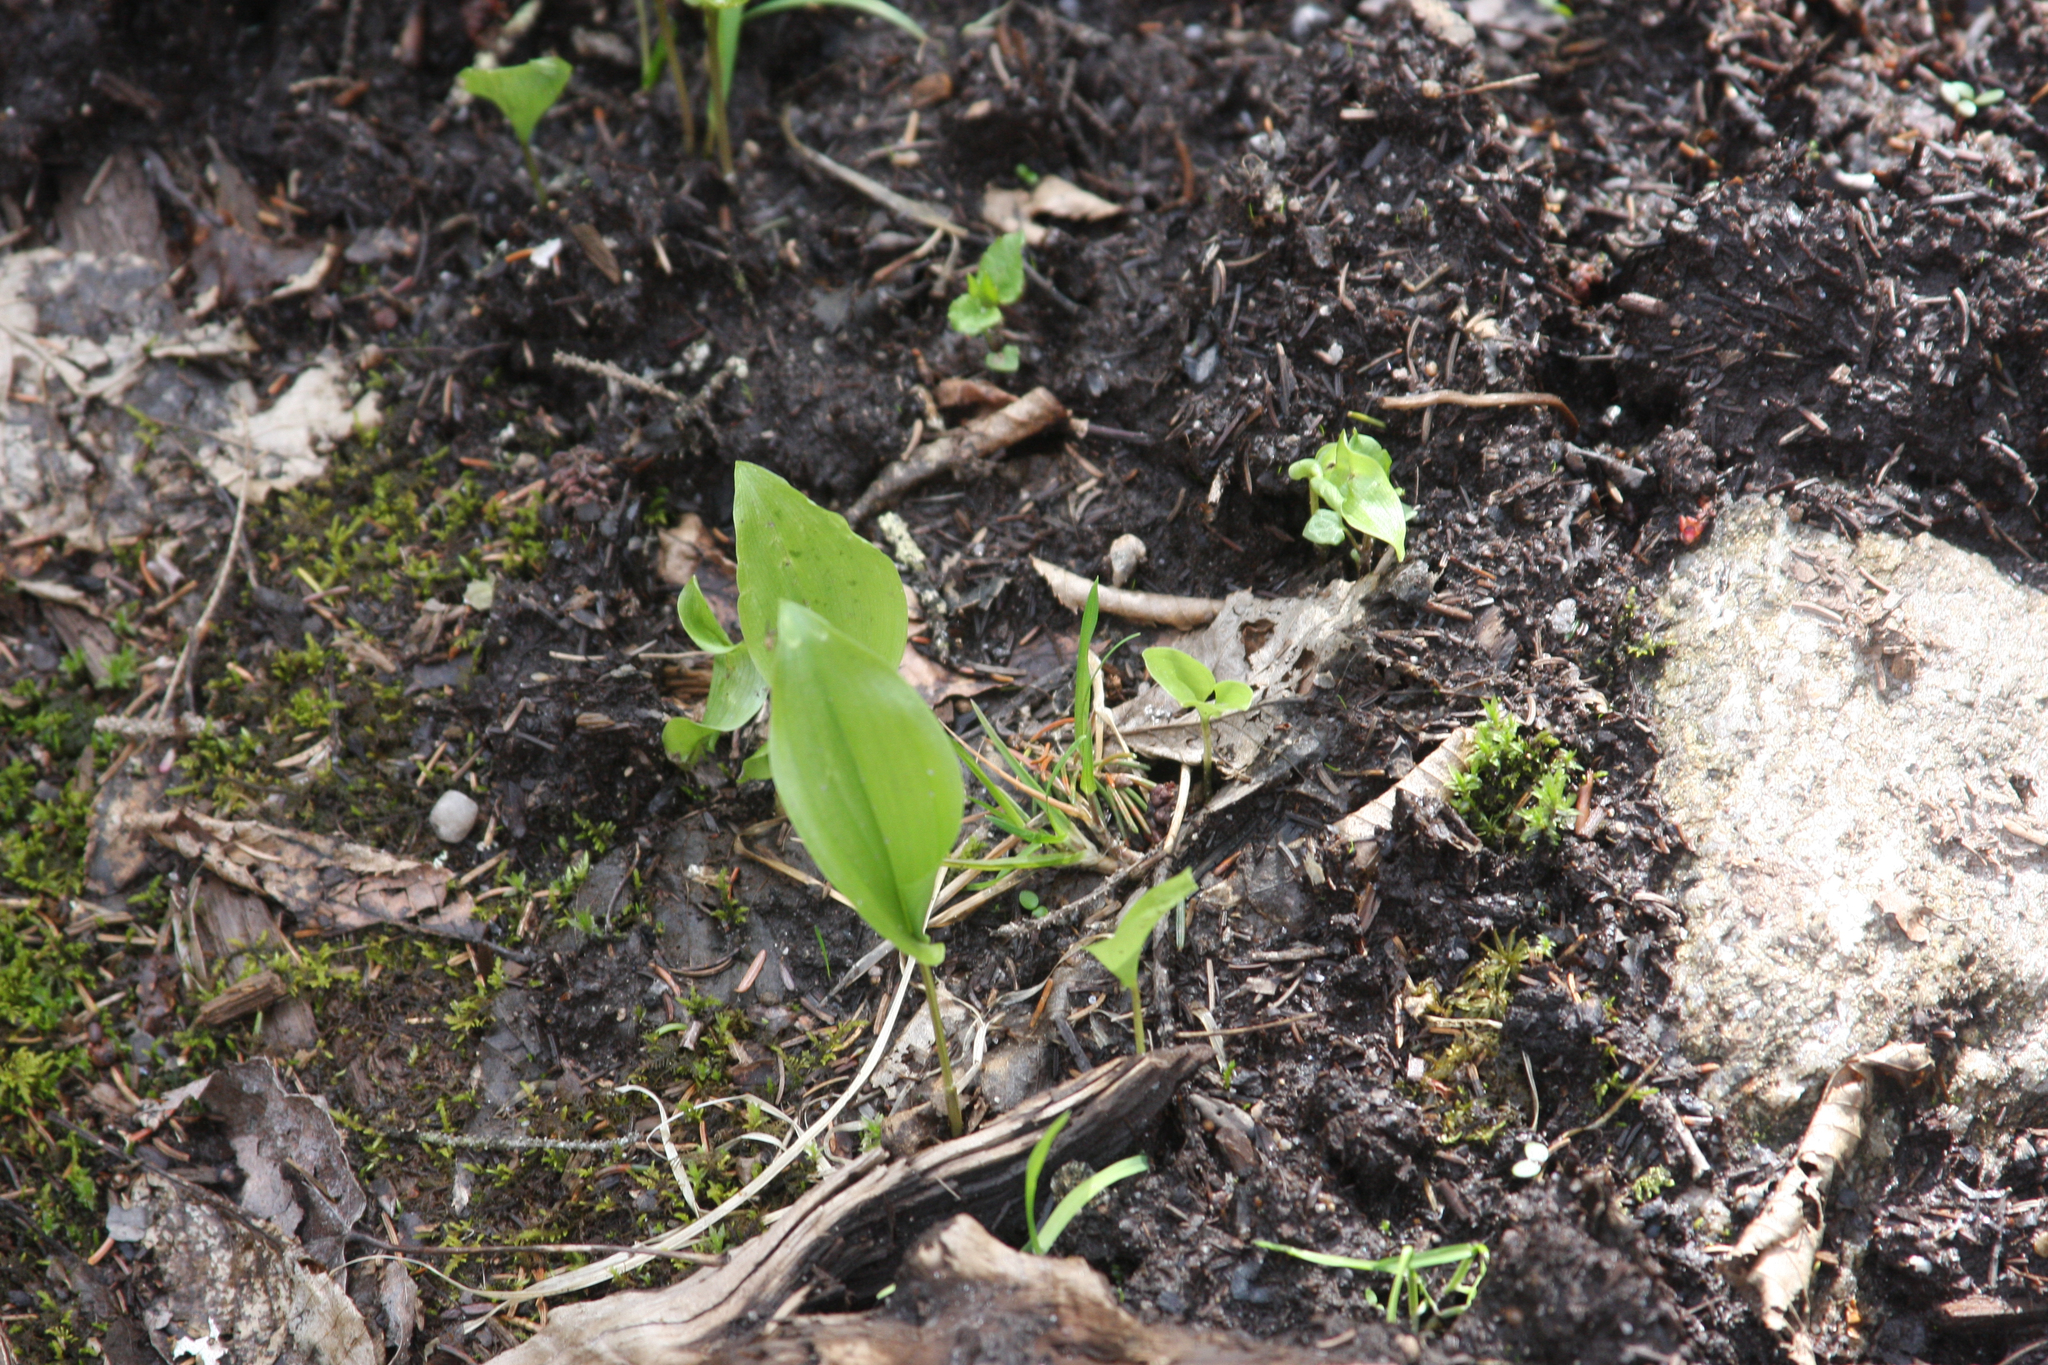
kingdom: Plantae
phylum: Tracheophyta
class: Liliopsida
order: Asparagales
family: Asparagaceae
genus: Maianthemum
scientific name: Maianthemum canadense
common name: False lily-of-the-valley
